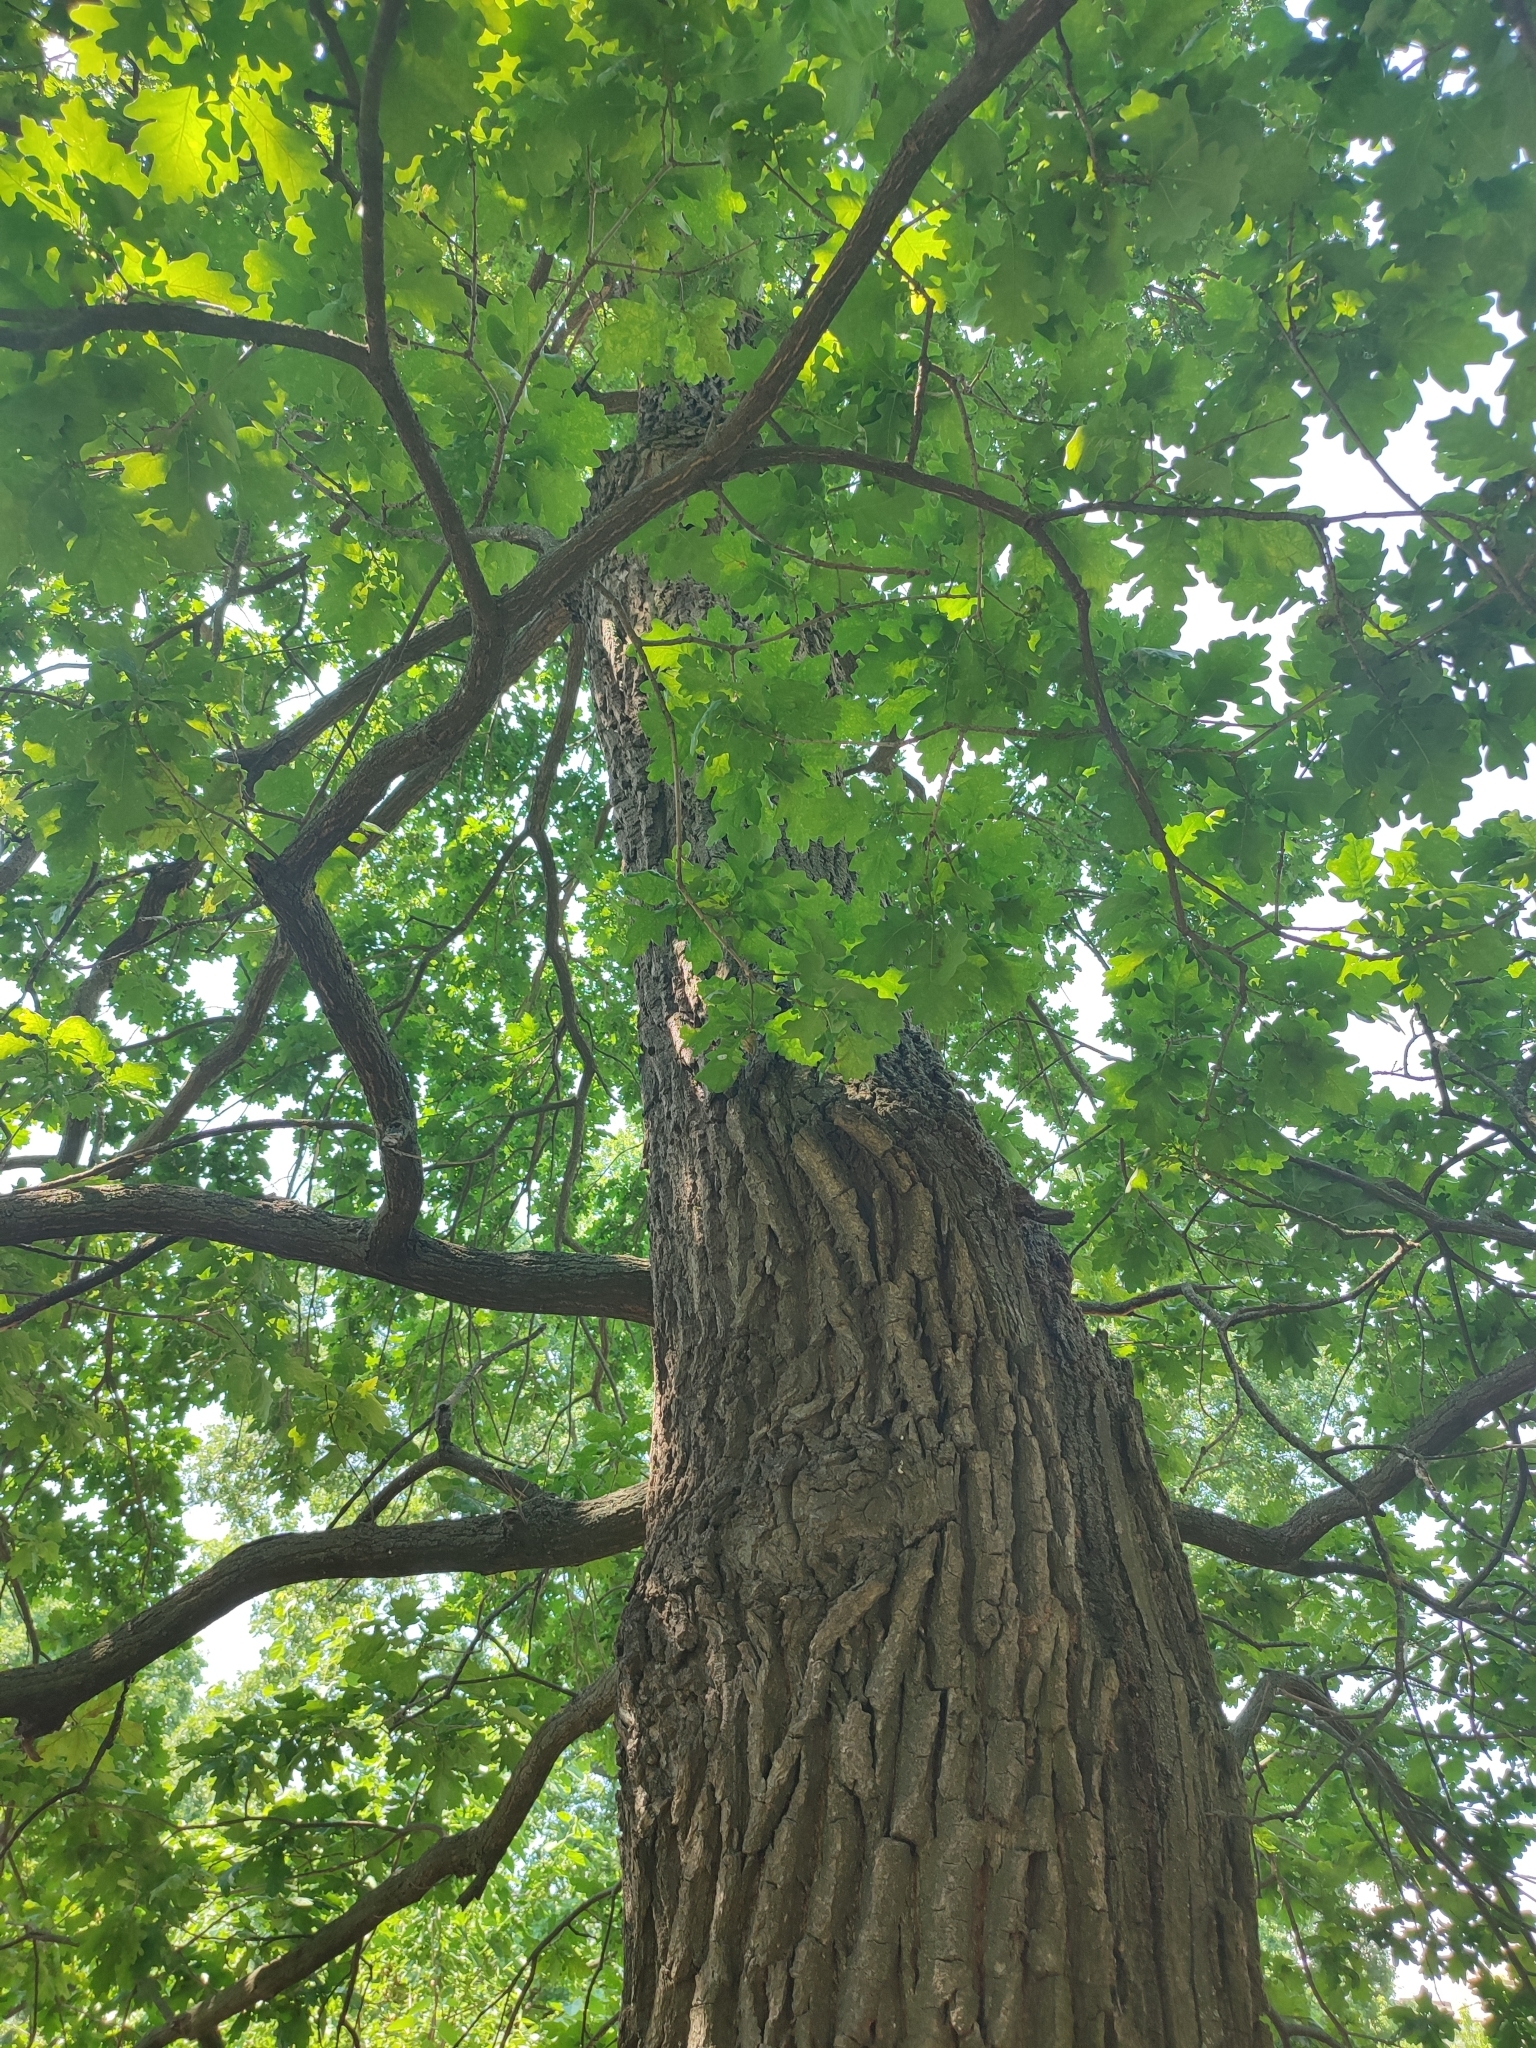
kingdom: Plantae
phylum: Tracheophyta
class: Magnoliopsida
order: Fagales
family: Fagaceae
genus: Quercus
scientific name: Quercus robur
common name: Pedunculate oak
